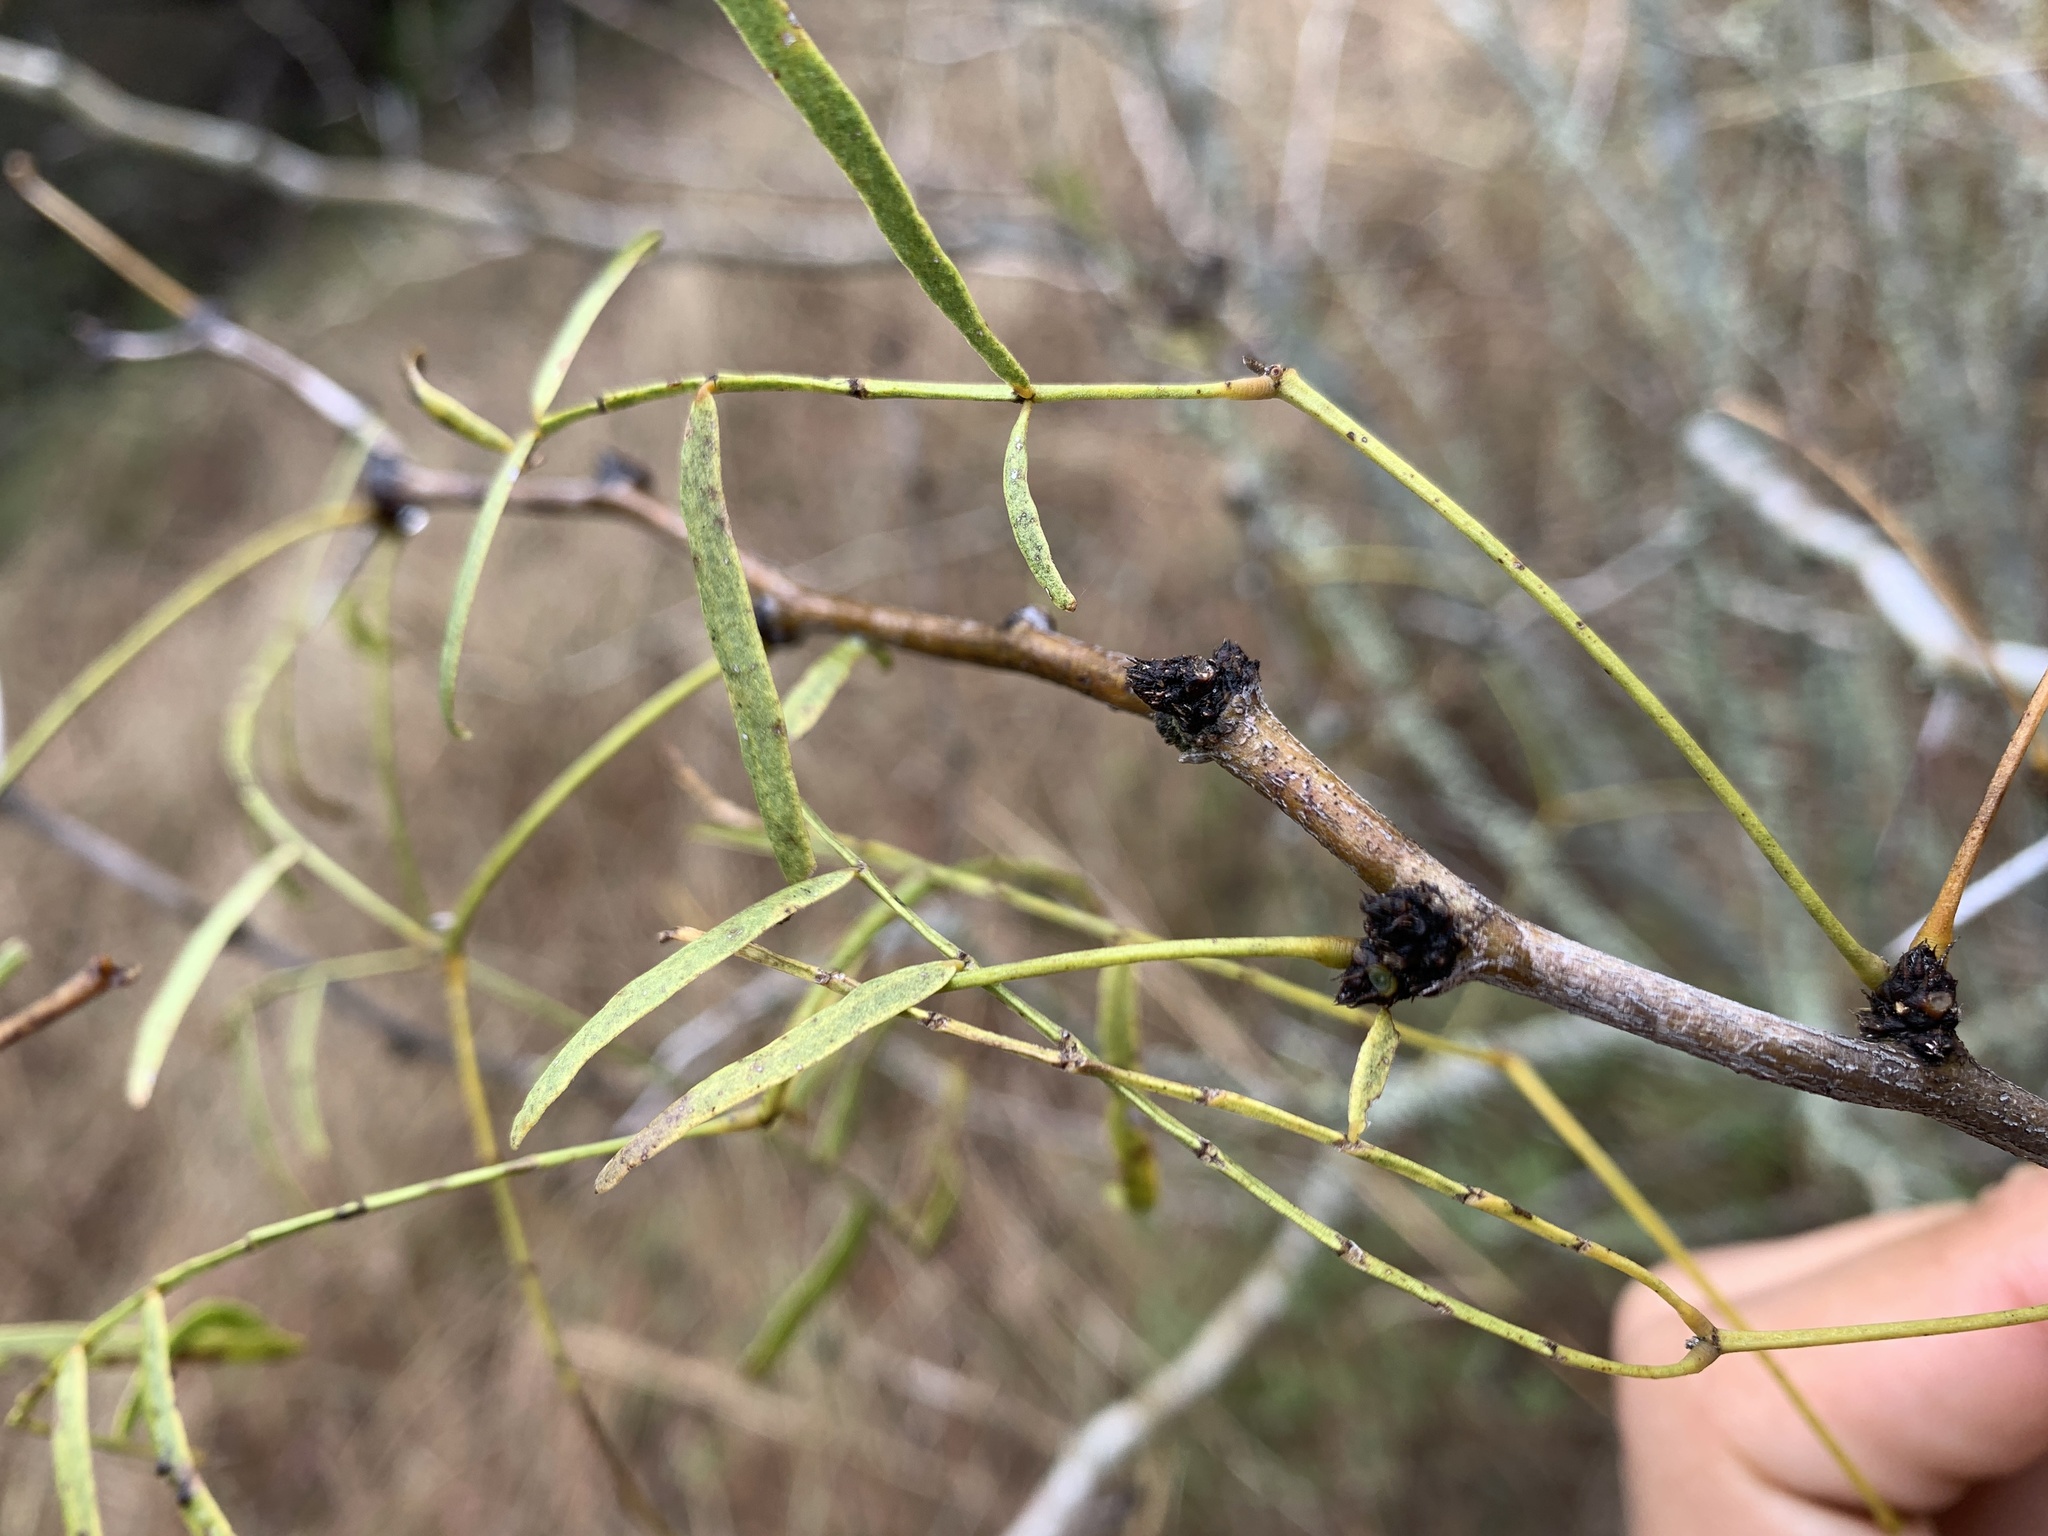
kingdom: Plantae
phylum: Tracheophyta
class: Magnoliopsida
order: Fabales
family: Fabaceae
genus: Prosopis
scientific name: Prosopis glandulosa
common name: Honey mesquite
